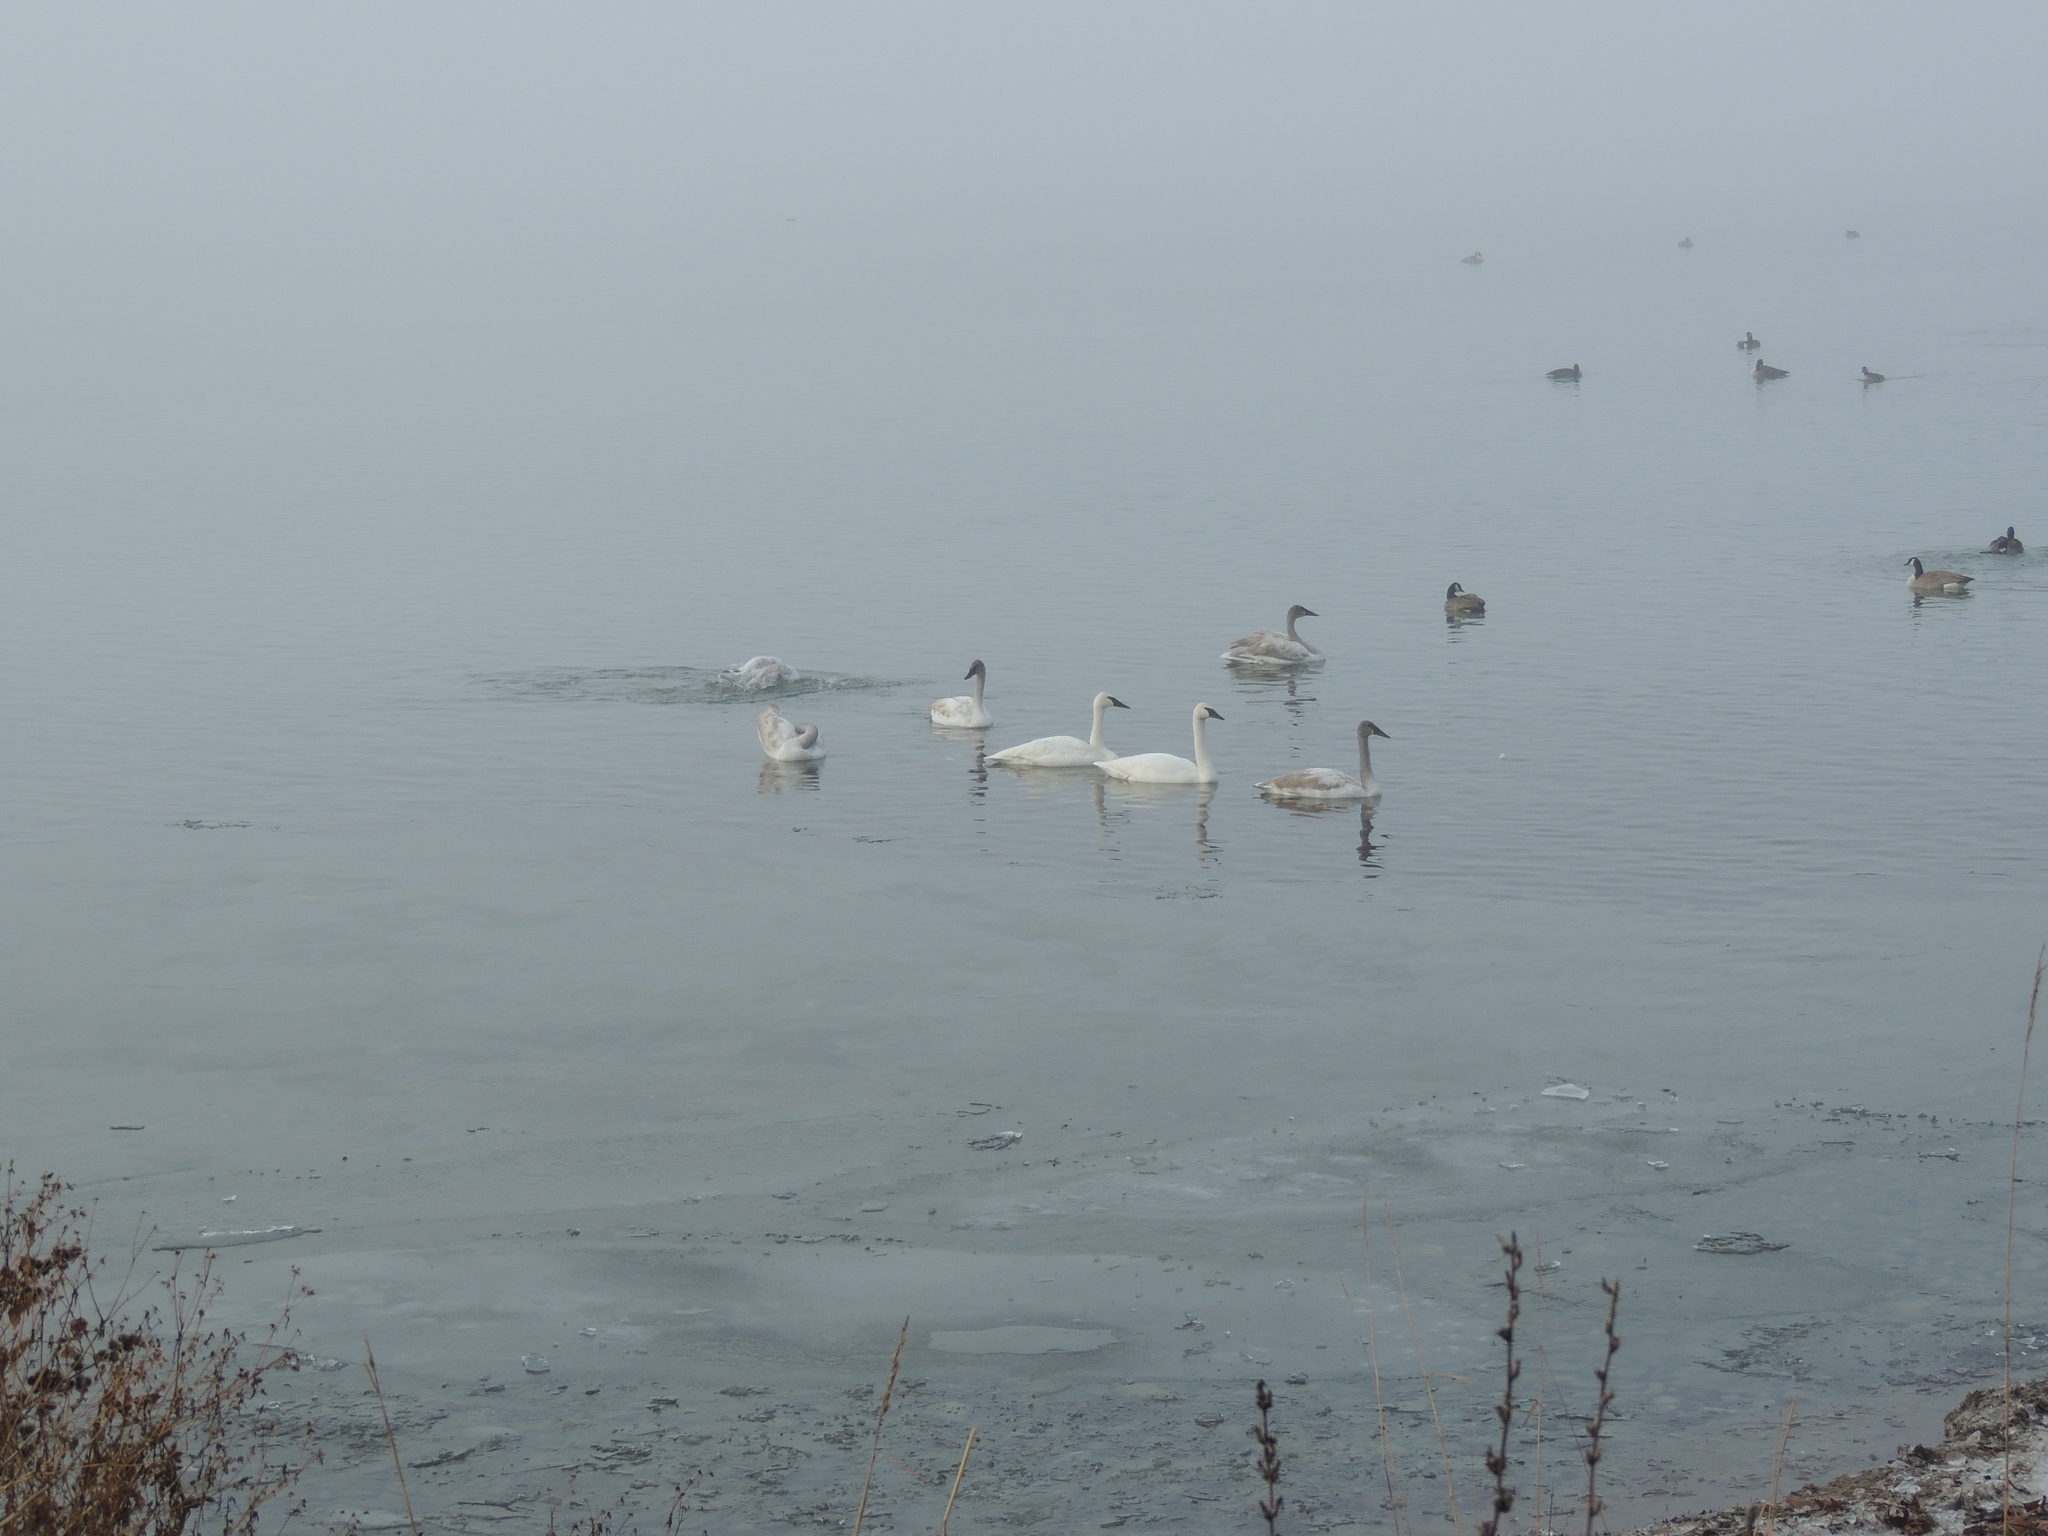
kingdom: Animalia
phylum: Chordata
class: Aves
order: Anseriformes
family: Anatidae
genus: Cygnus
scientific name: Cygnus buccinator
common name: Trumpeter swan
